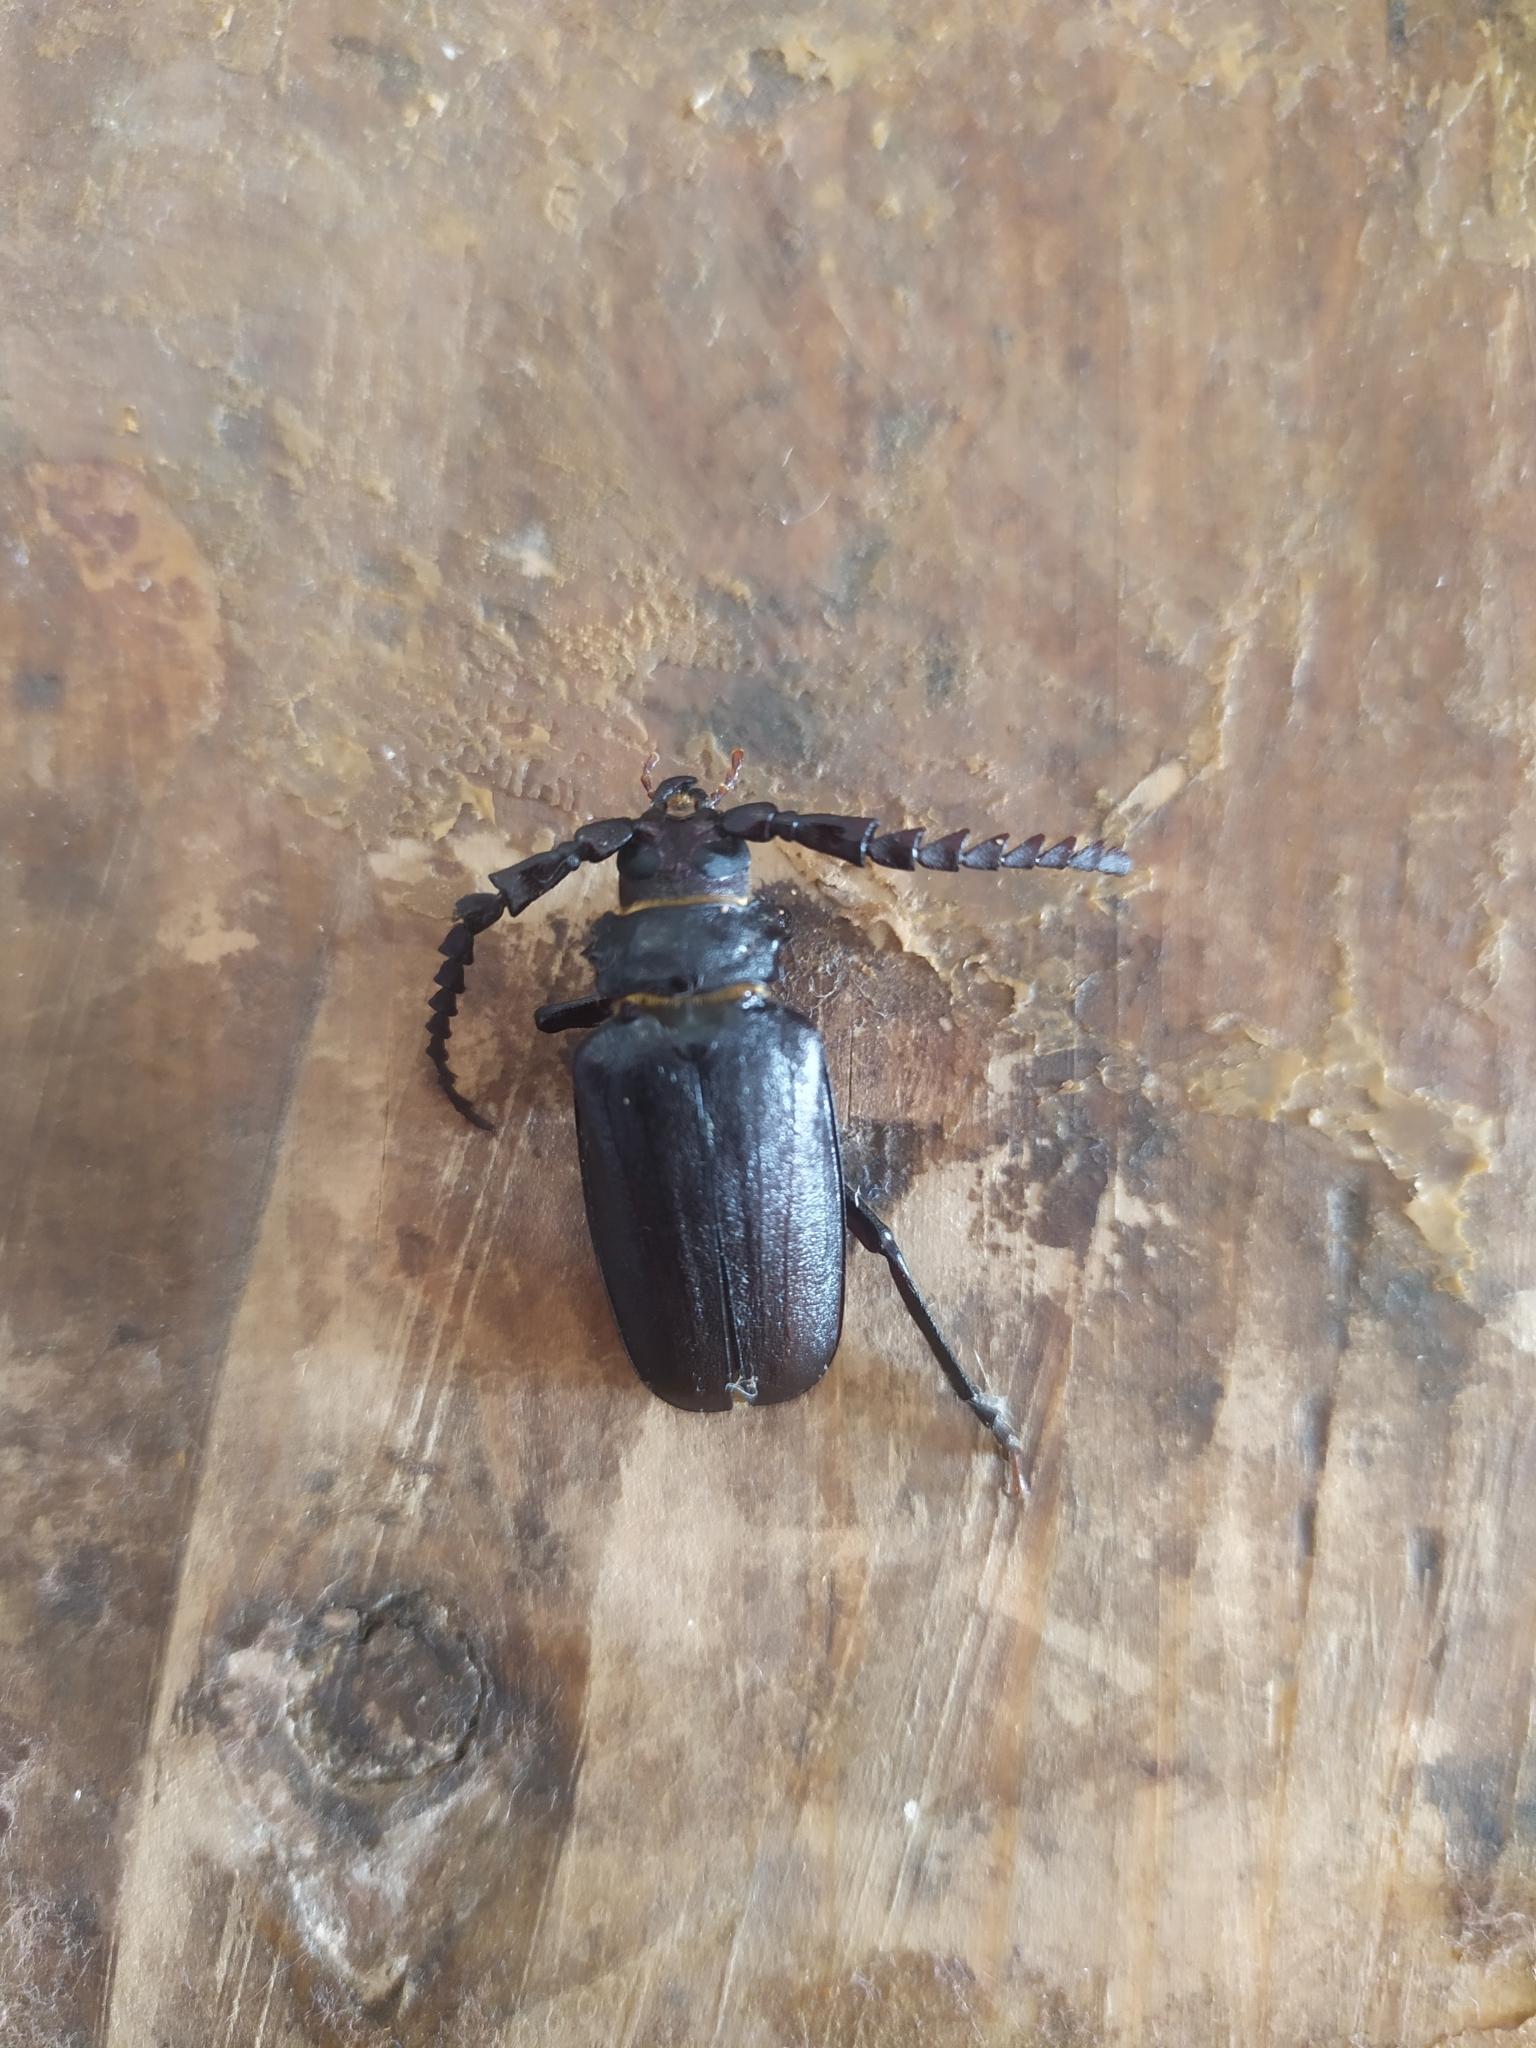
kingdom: Animalia
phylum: Arthropoda
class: Insecta
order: Coleoptera
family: Cerambycidae
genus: Prionus
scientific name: Prionus coriarius
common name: Tanner beetle
